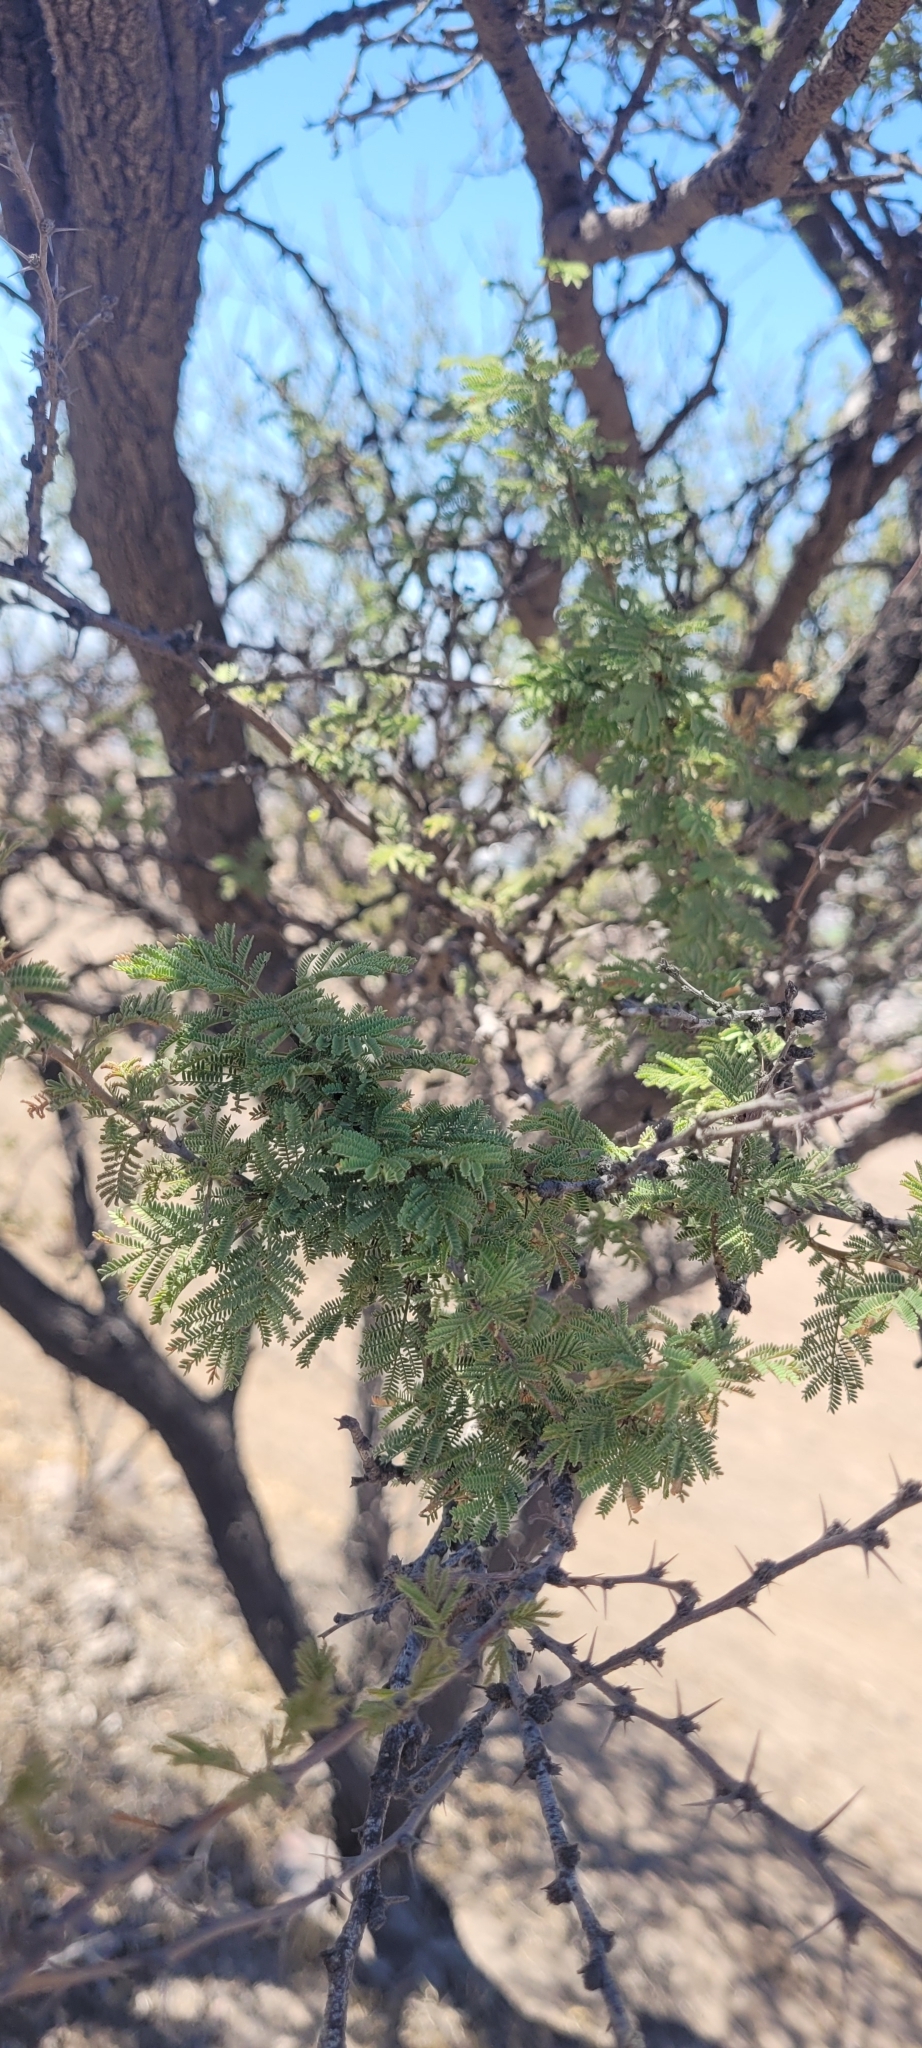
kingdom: Plantae
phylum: Tracheophyta
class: Magnoliopsida
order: Fabales
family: Fabaceae
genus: Vachellia
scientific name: Vachellia caven
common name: Roman cassie
